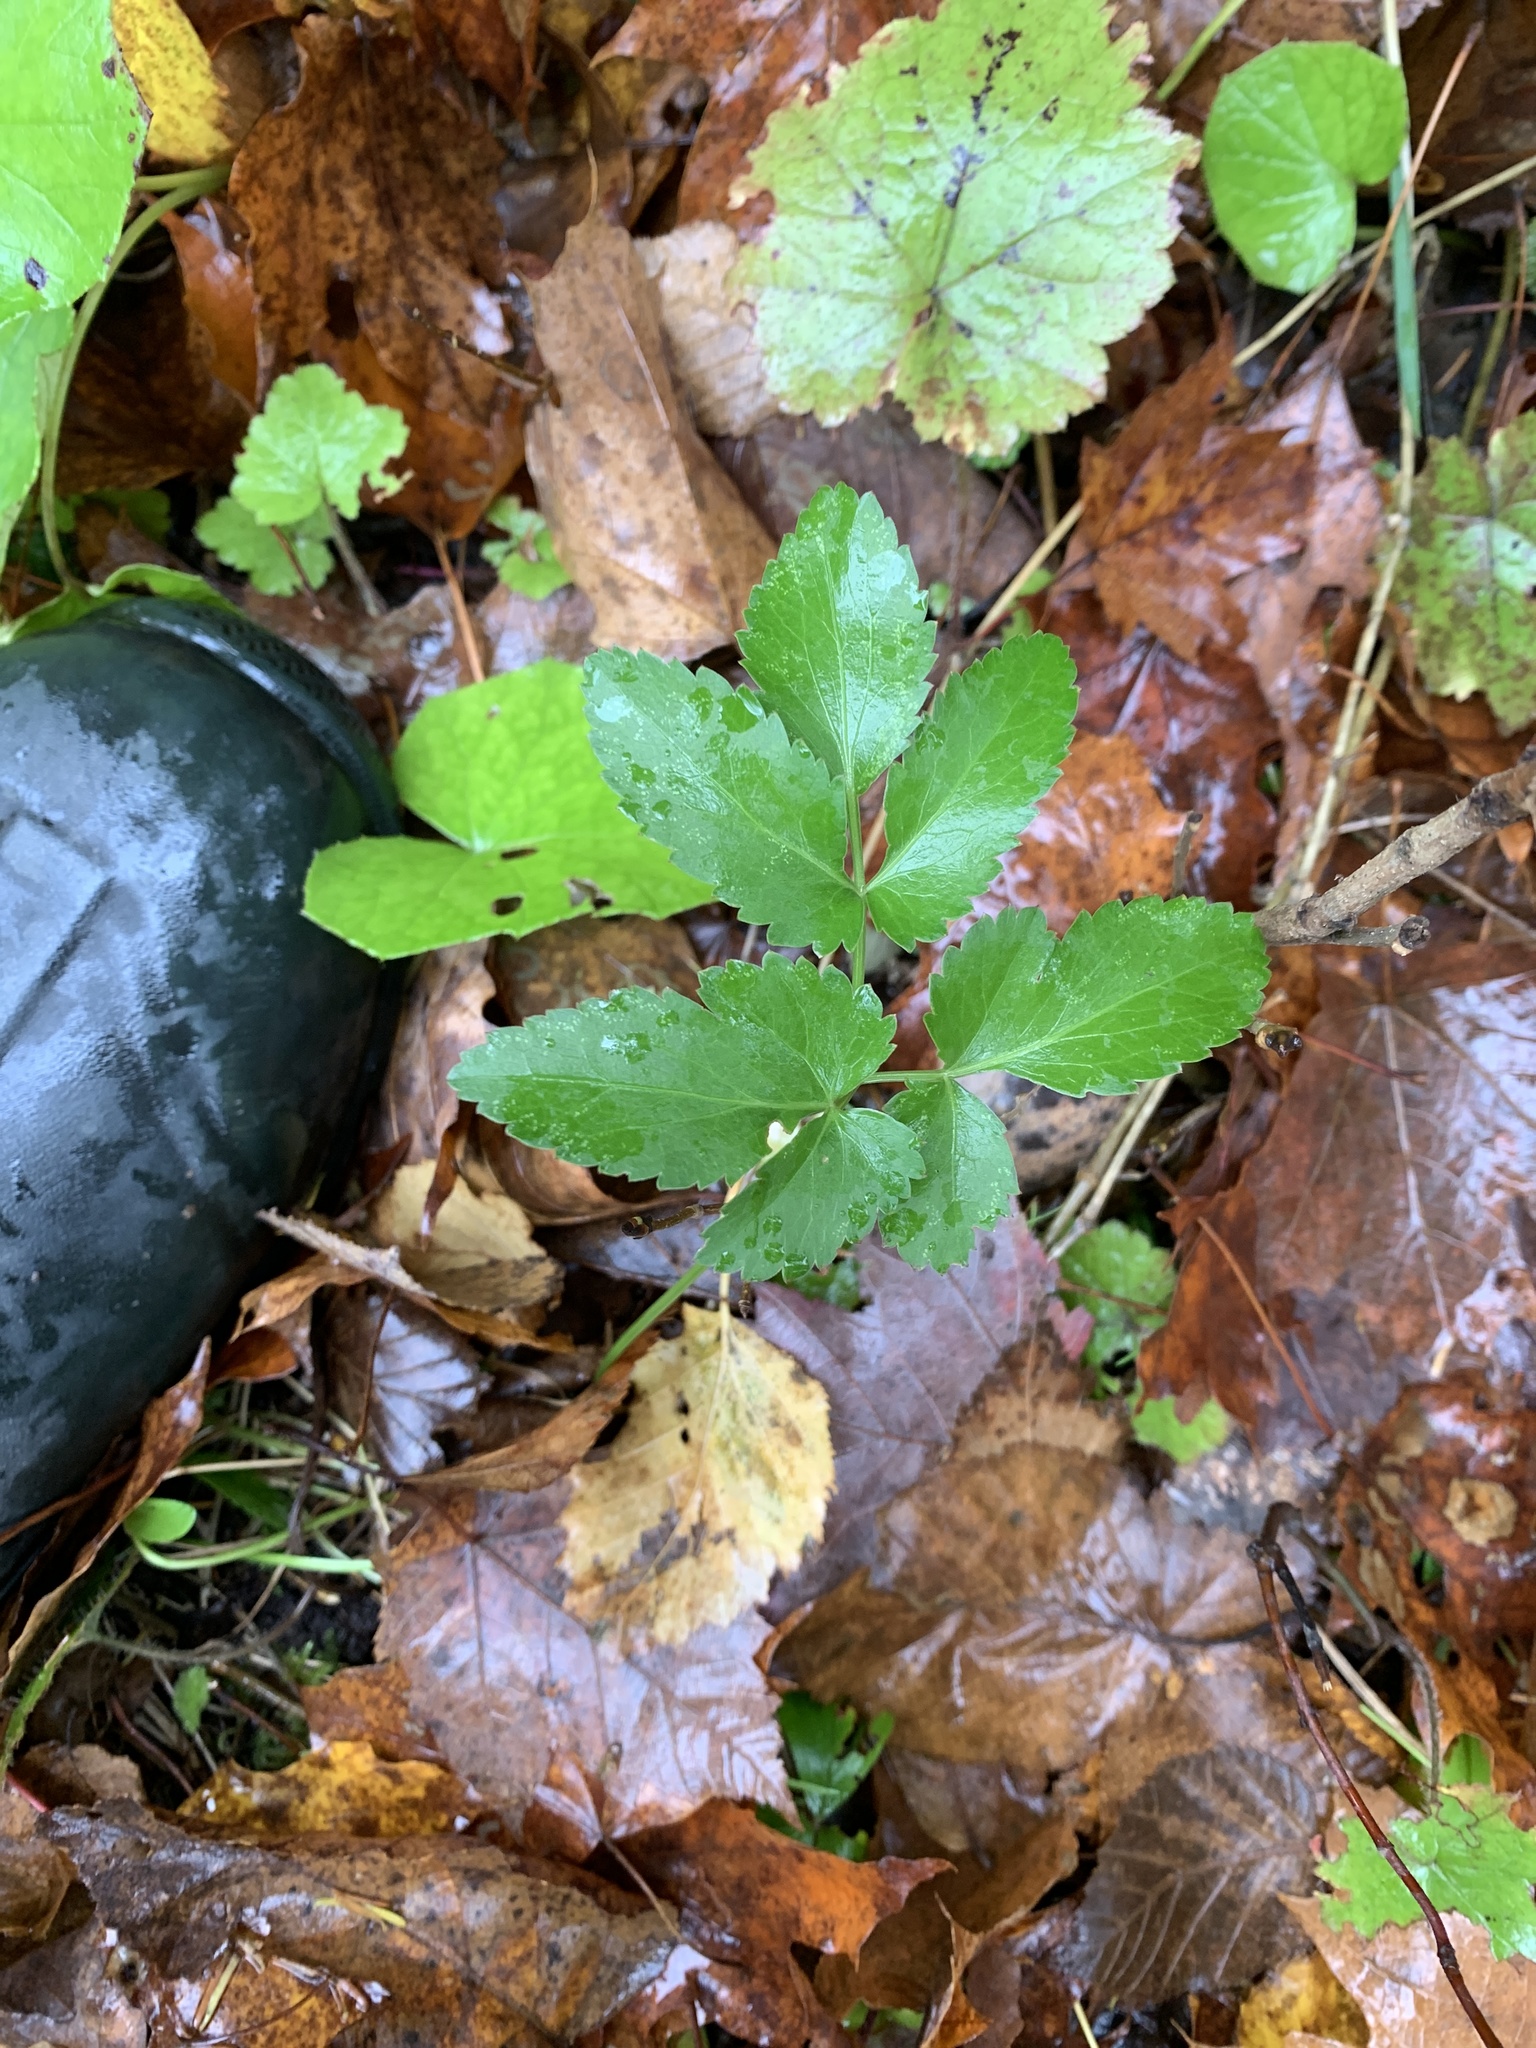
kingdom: Plantae
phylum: Tracheophyta
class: Magnoliopsida
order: Apiales
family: Apiaceae
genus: Aegopodium
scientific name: Aegopodium podagraria
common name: Ground-elder
